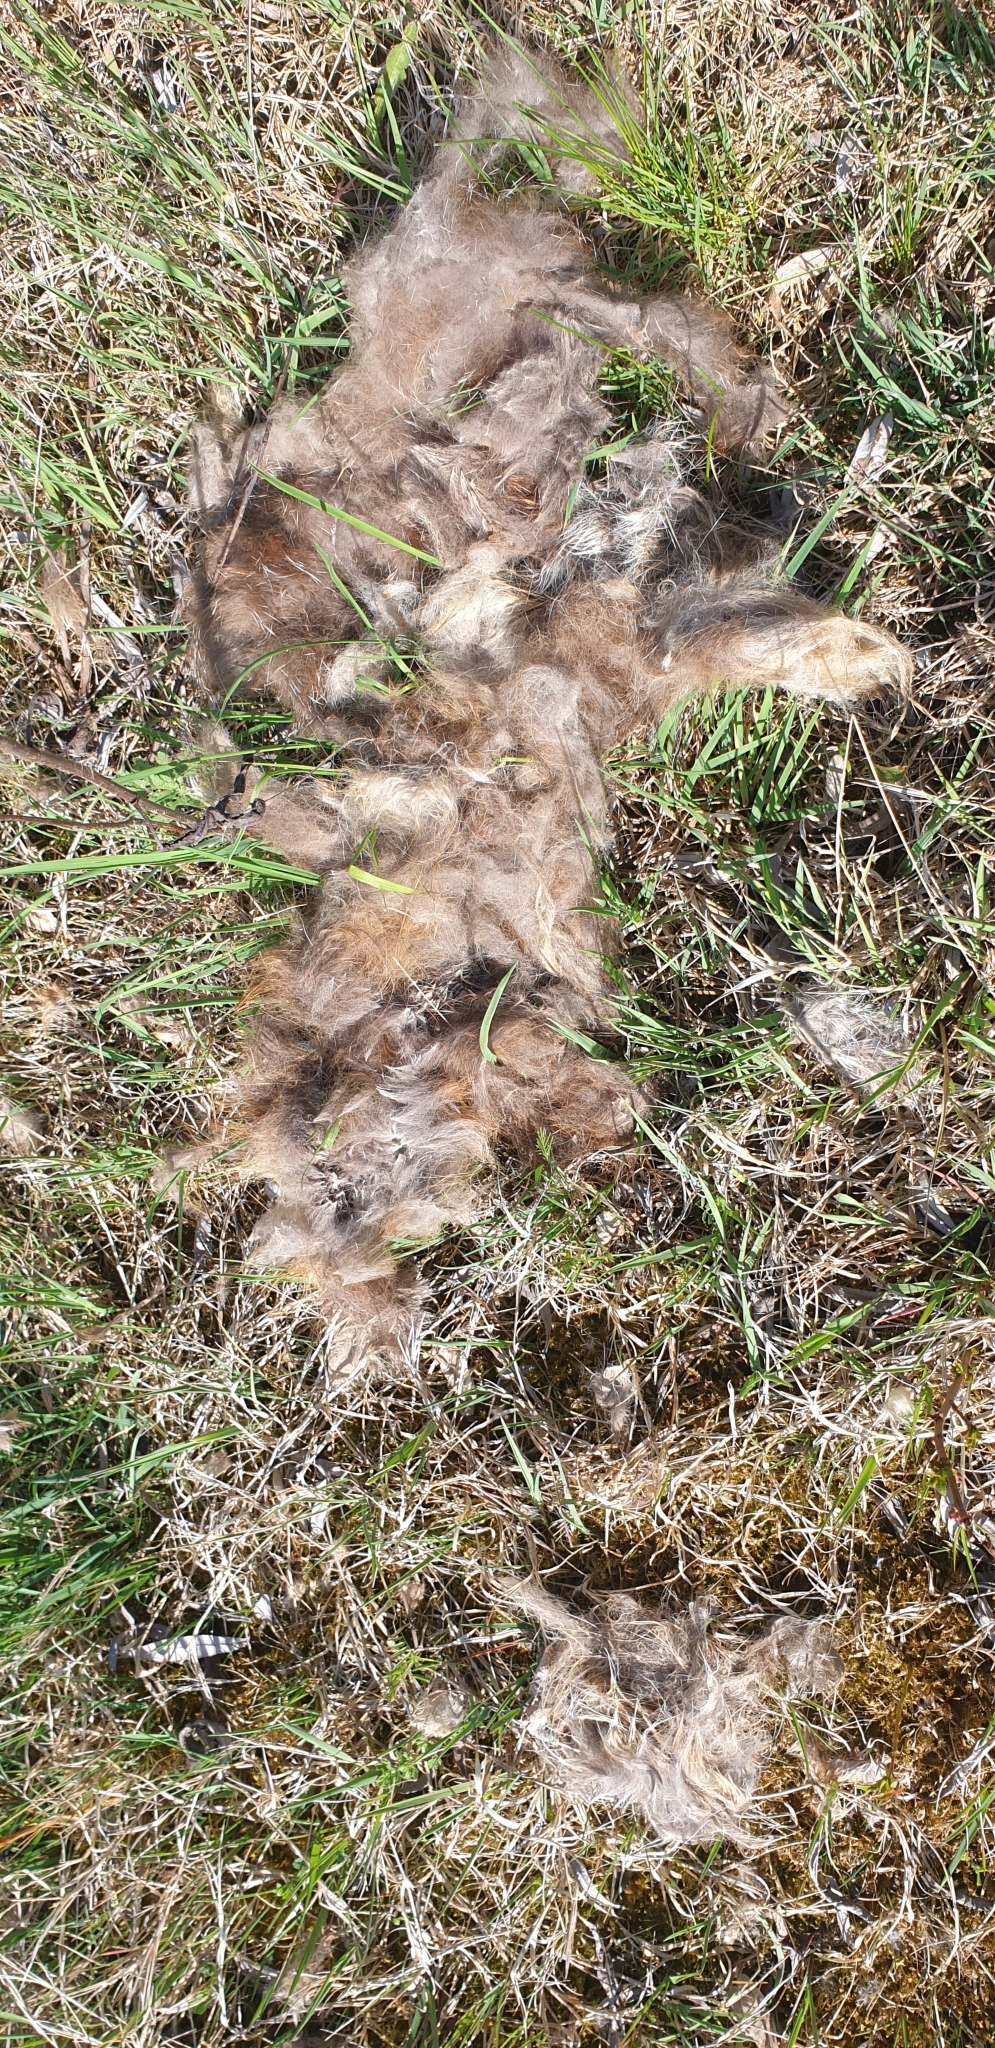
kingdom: Animalia
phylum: Chordata
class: Mammalia
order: Carnivora
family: Canidae
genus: Vulpes
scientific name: Vulpes vulpes
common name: Red fox
